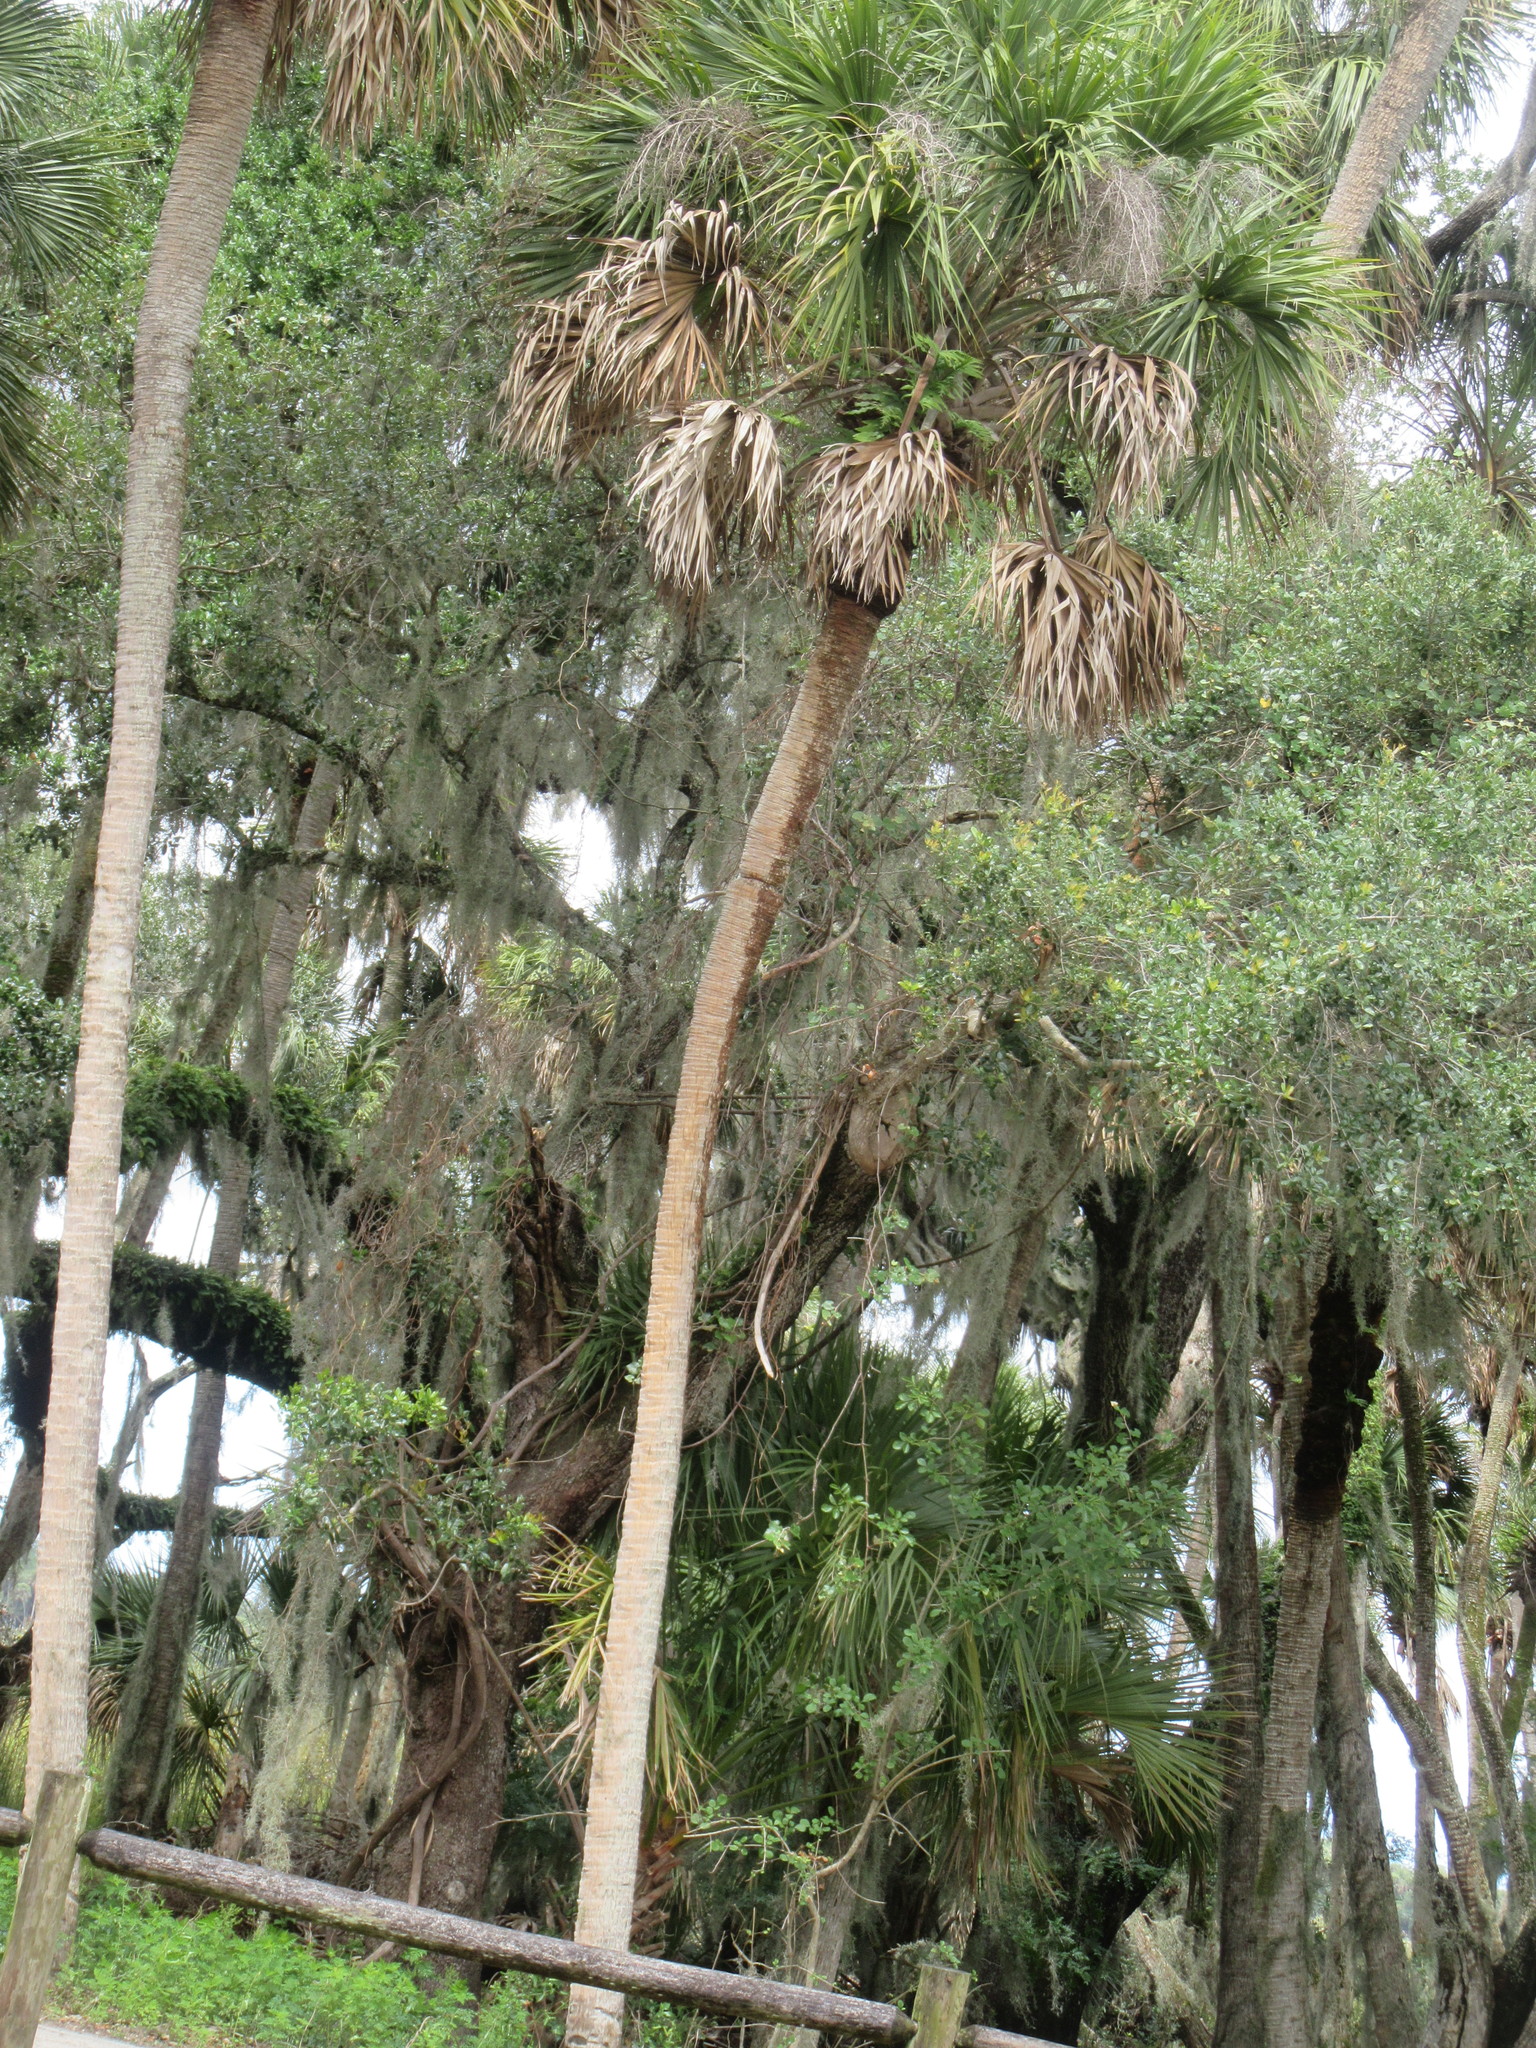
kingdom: Plantae
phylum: Tracheophyta
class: Liliopsida
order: Arecales
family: Arecaceae
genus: Sabal
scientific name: Sabal palmetto
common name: Blue palmetto
